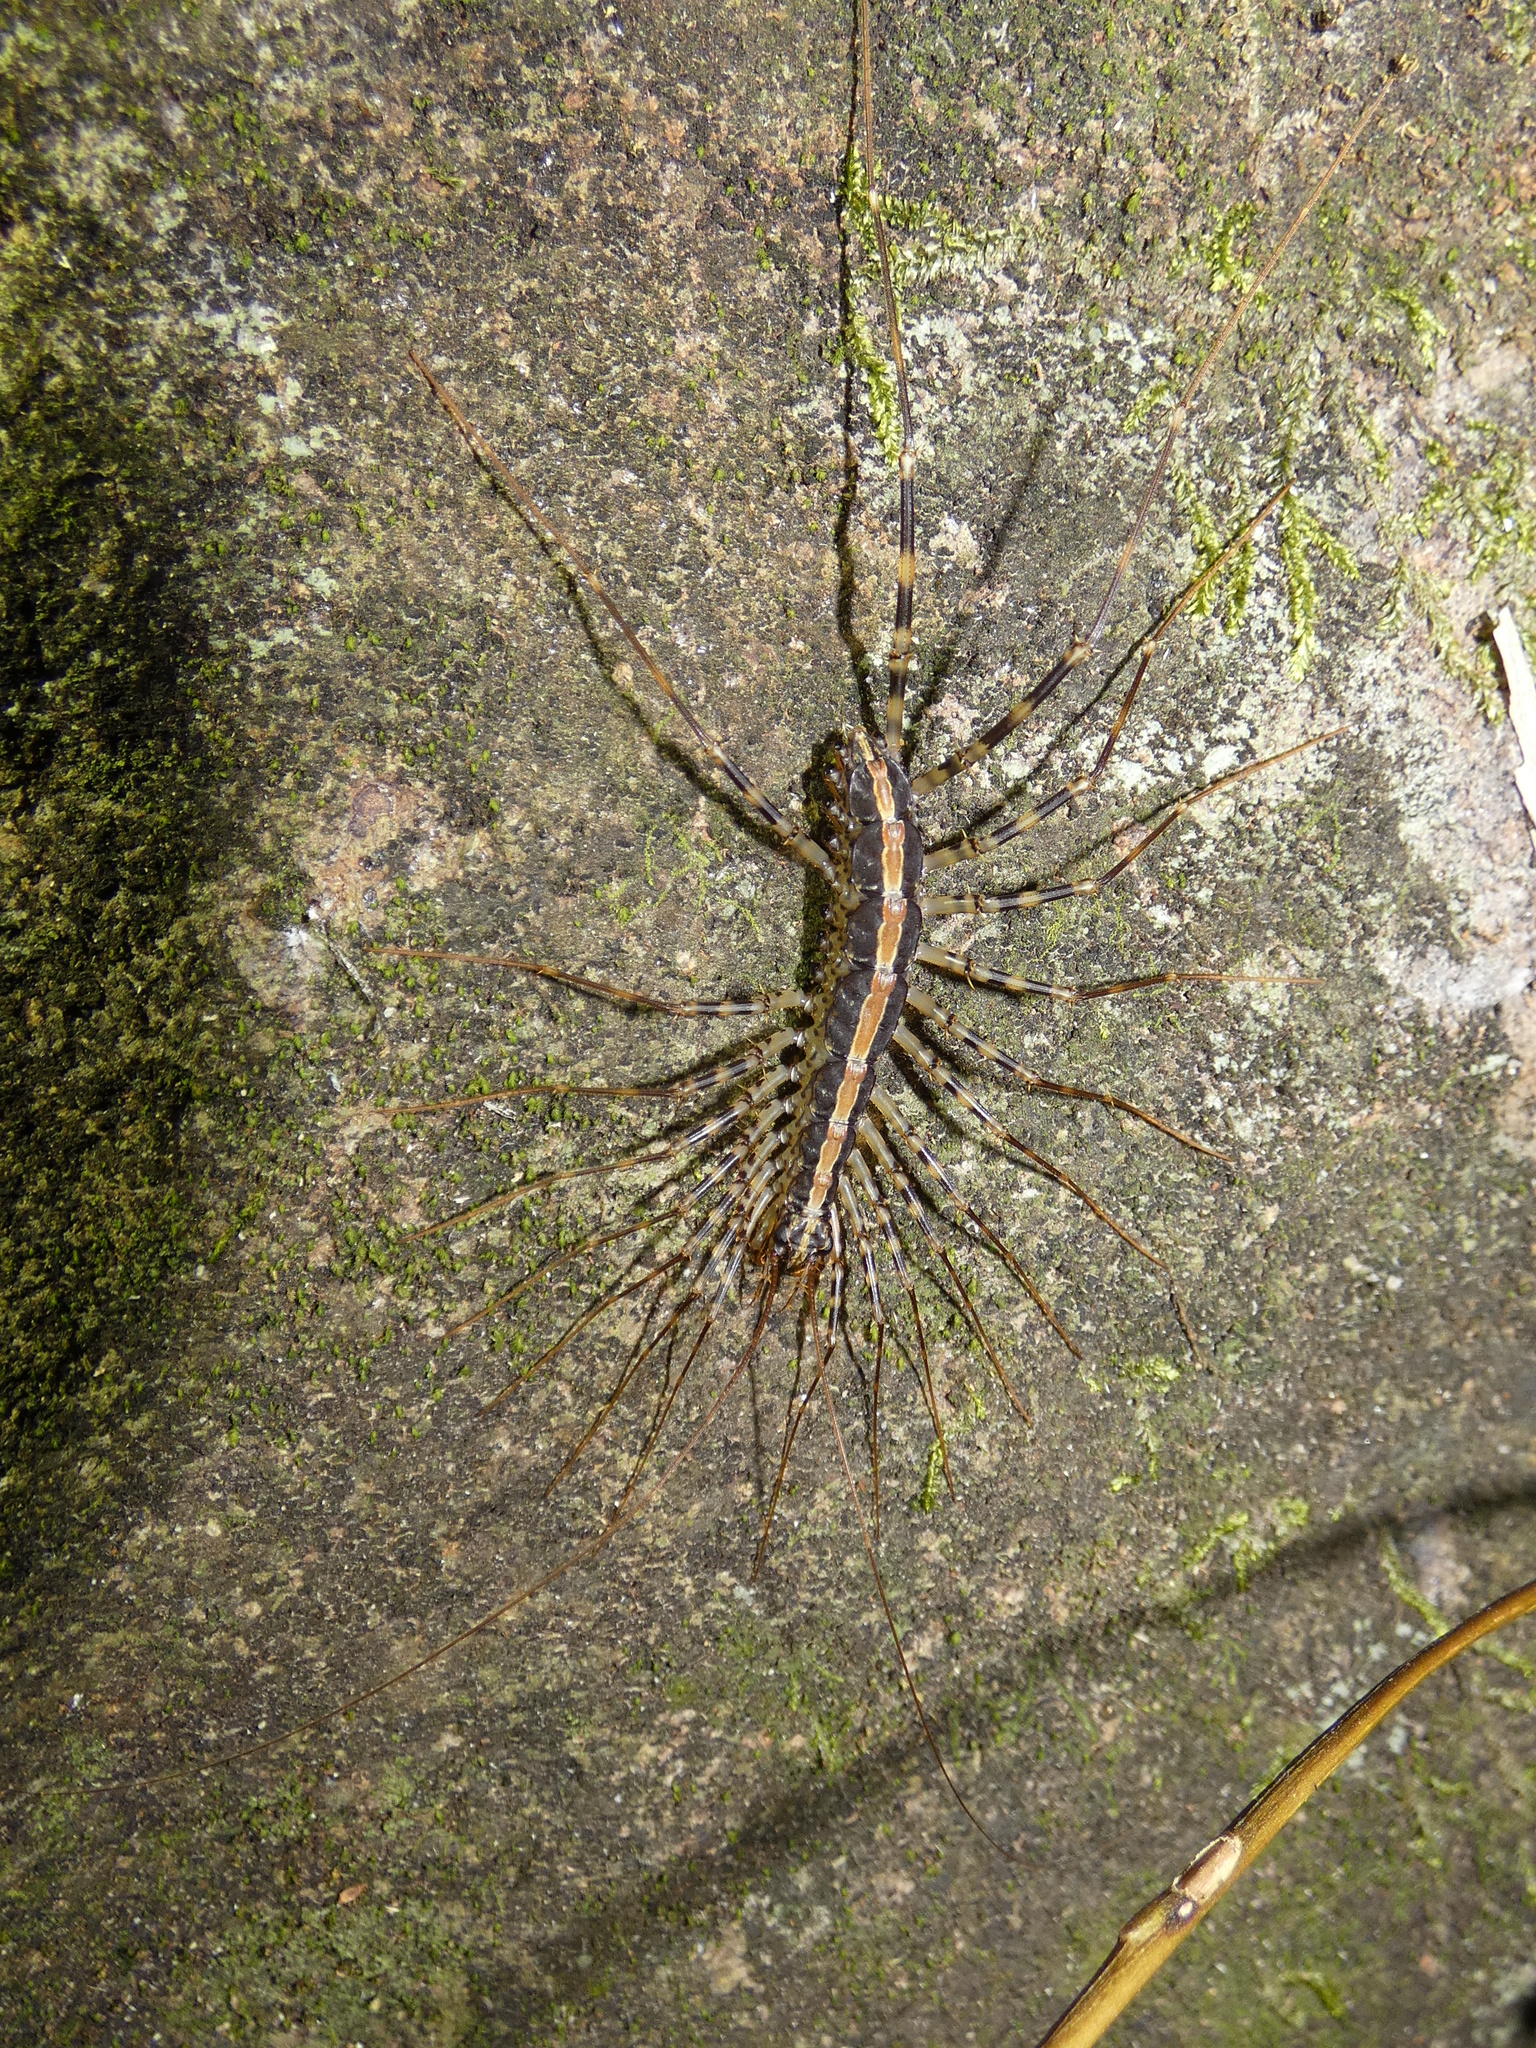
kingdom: Animalia
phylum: Arthropoda
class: Chilopoda
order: Scutigeromorpha
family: Pselliodidae
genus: Sphendononema
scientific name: Sphendononema guildingii
